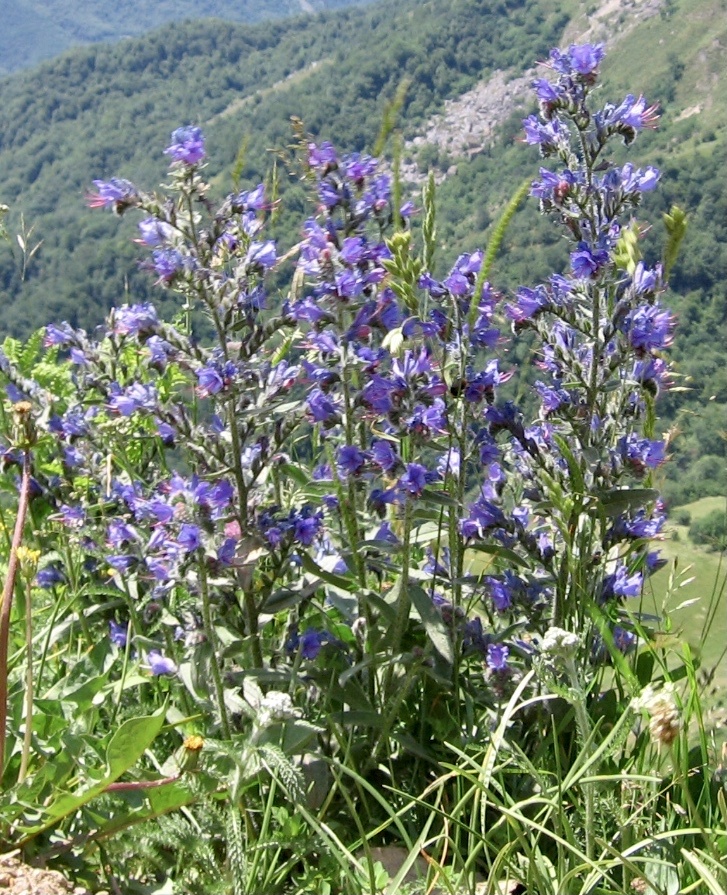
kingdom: Plantae
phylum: Tracheophyta
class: Magnoliopsida
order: Boraginales
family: Boraginaceae
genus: Echium
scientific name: Echium vulgare
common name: Common viper's bugloss
